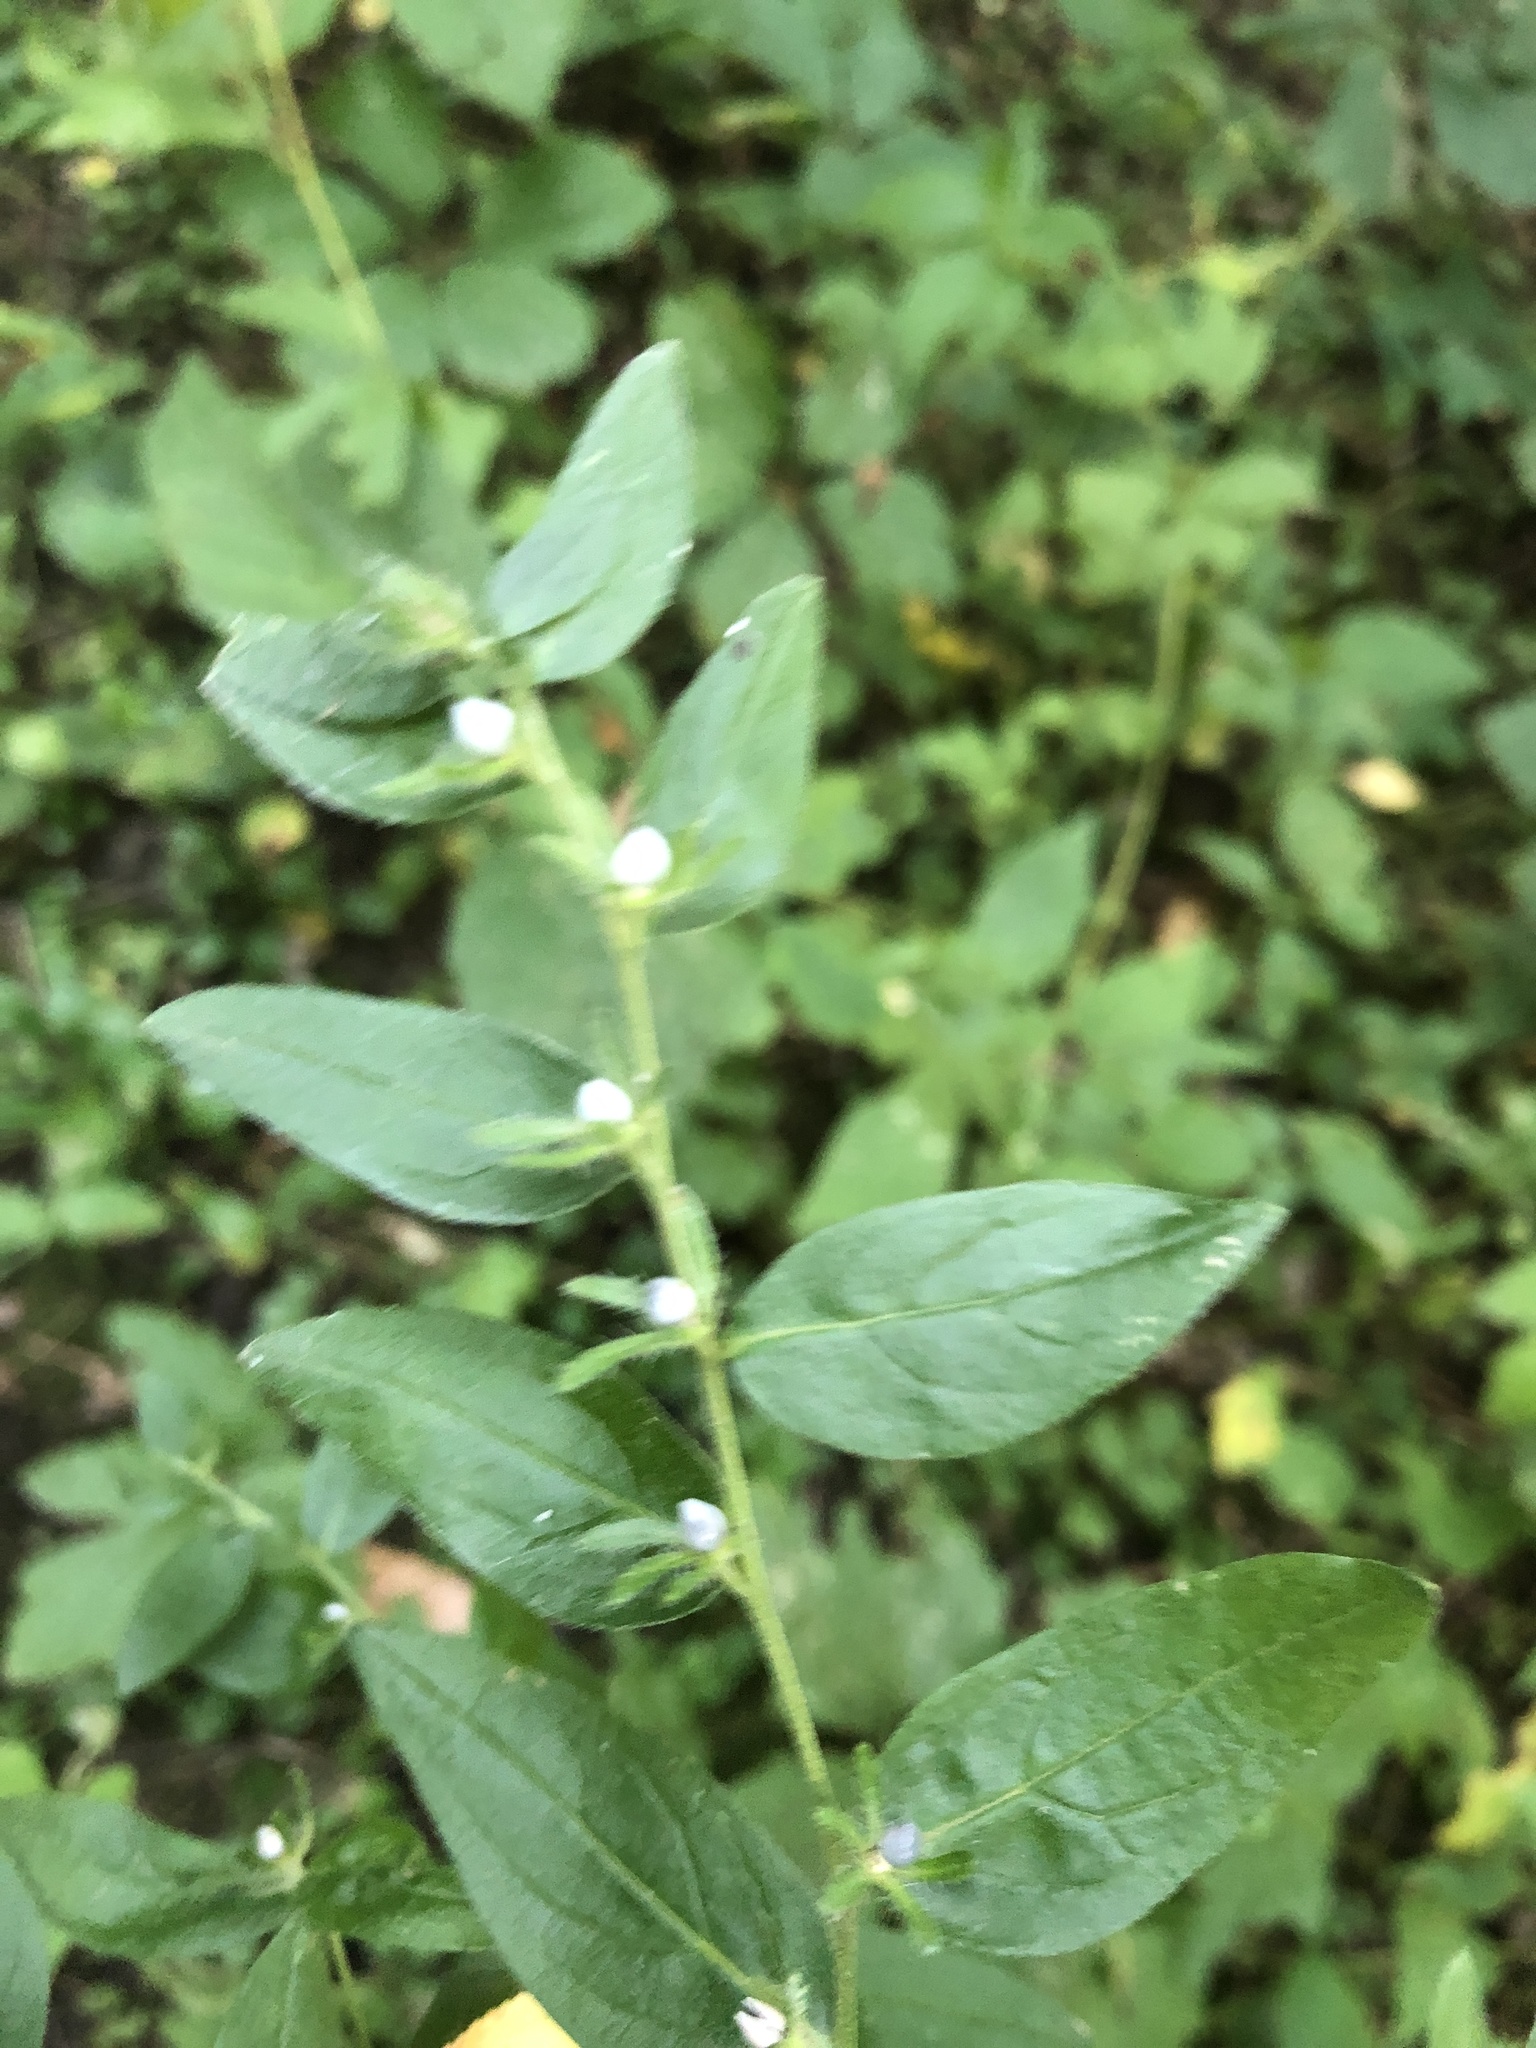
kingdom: Plantae
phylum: Tracheophyta
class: Magnoliopsida
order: Boraginales
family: Boraginaceae
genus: Lithospermum
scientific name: Lithospermum officinale
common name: Common gromwell
